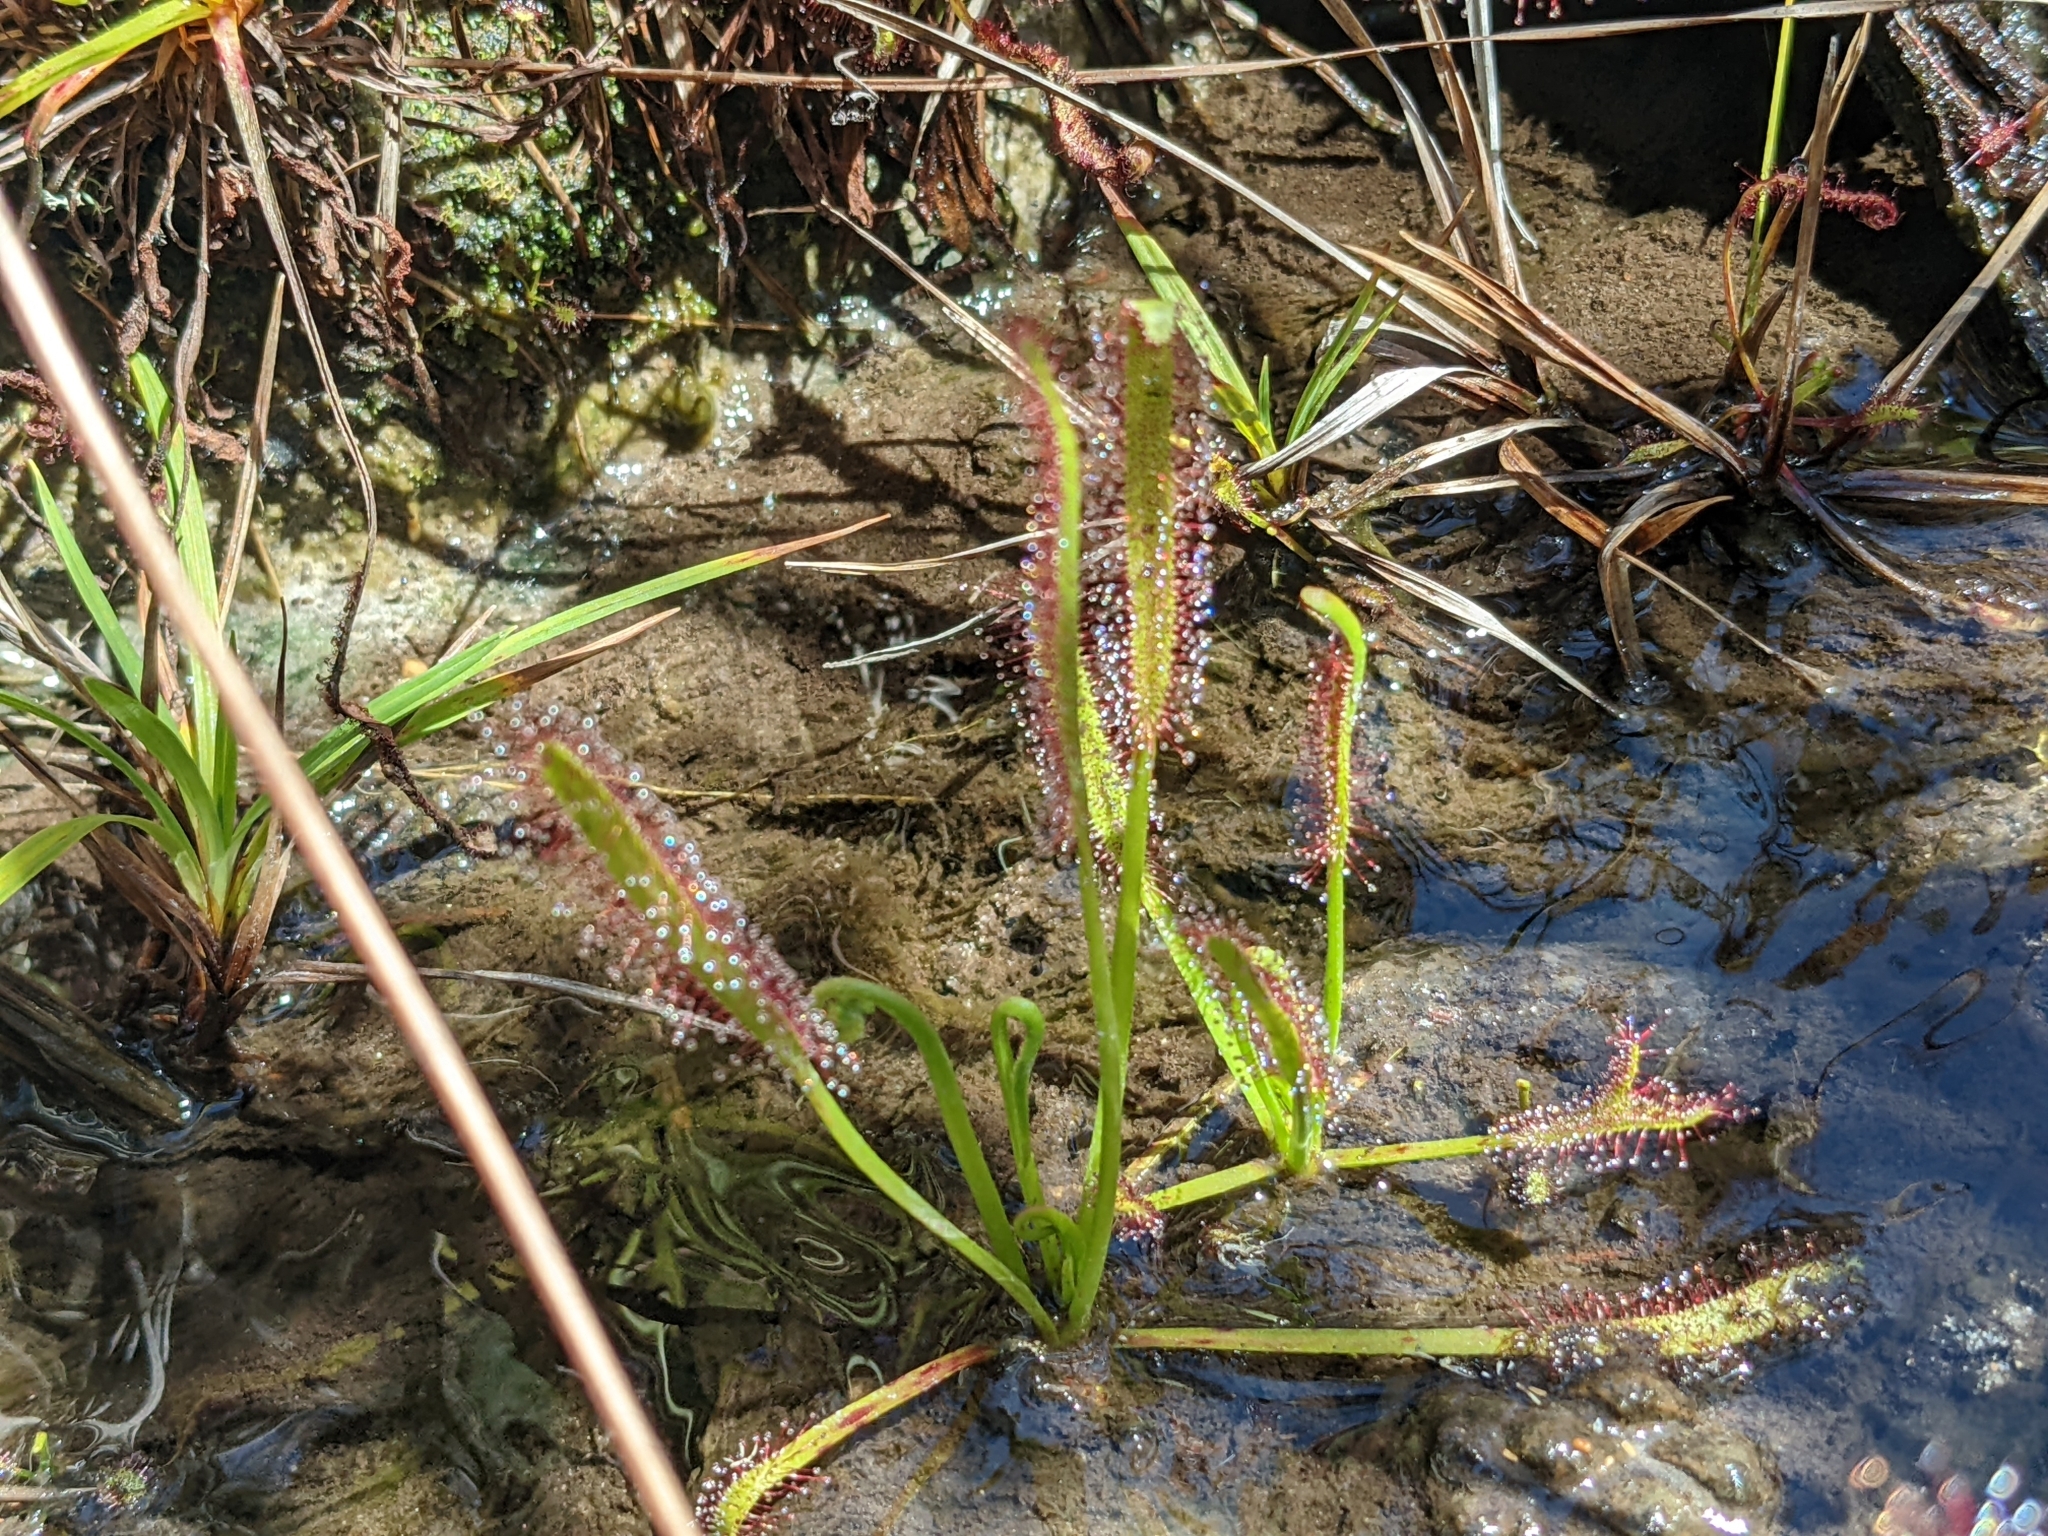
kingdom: Plantae
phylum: Tracheophyta
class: Magnoliopsida
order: Caryophyllales
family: Droseraceae
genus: Drosera
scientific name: Drosera capensis
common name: Cape sundew
